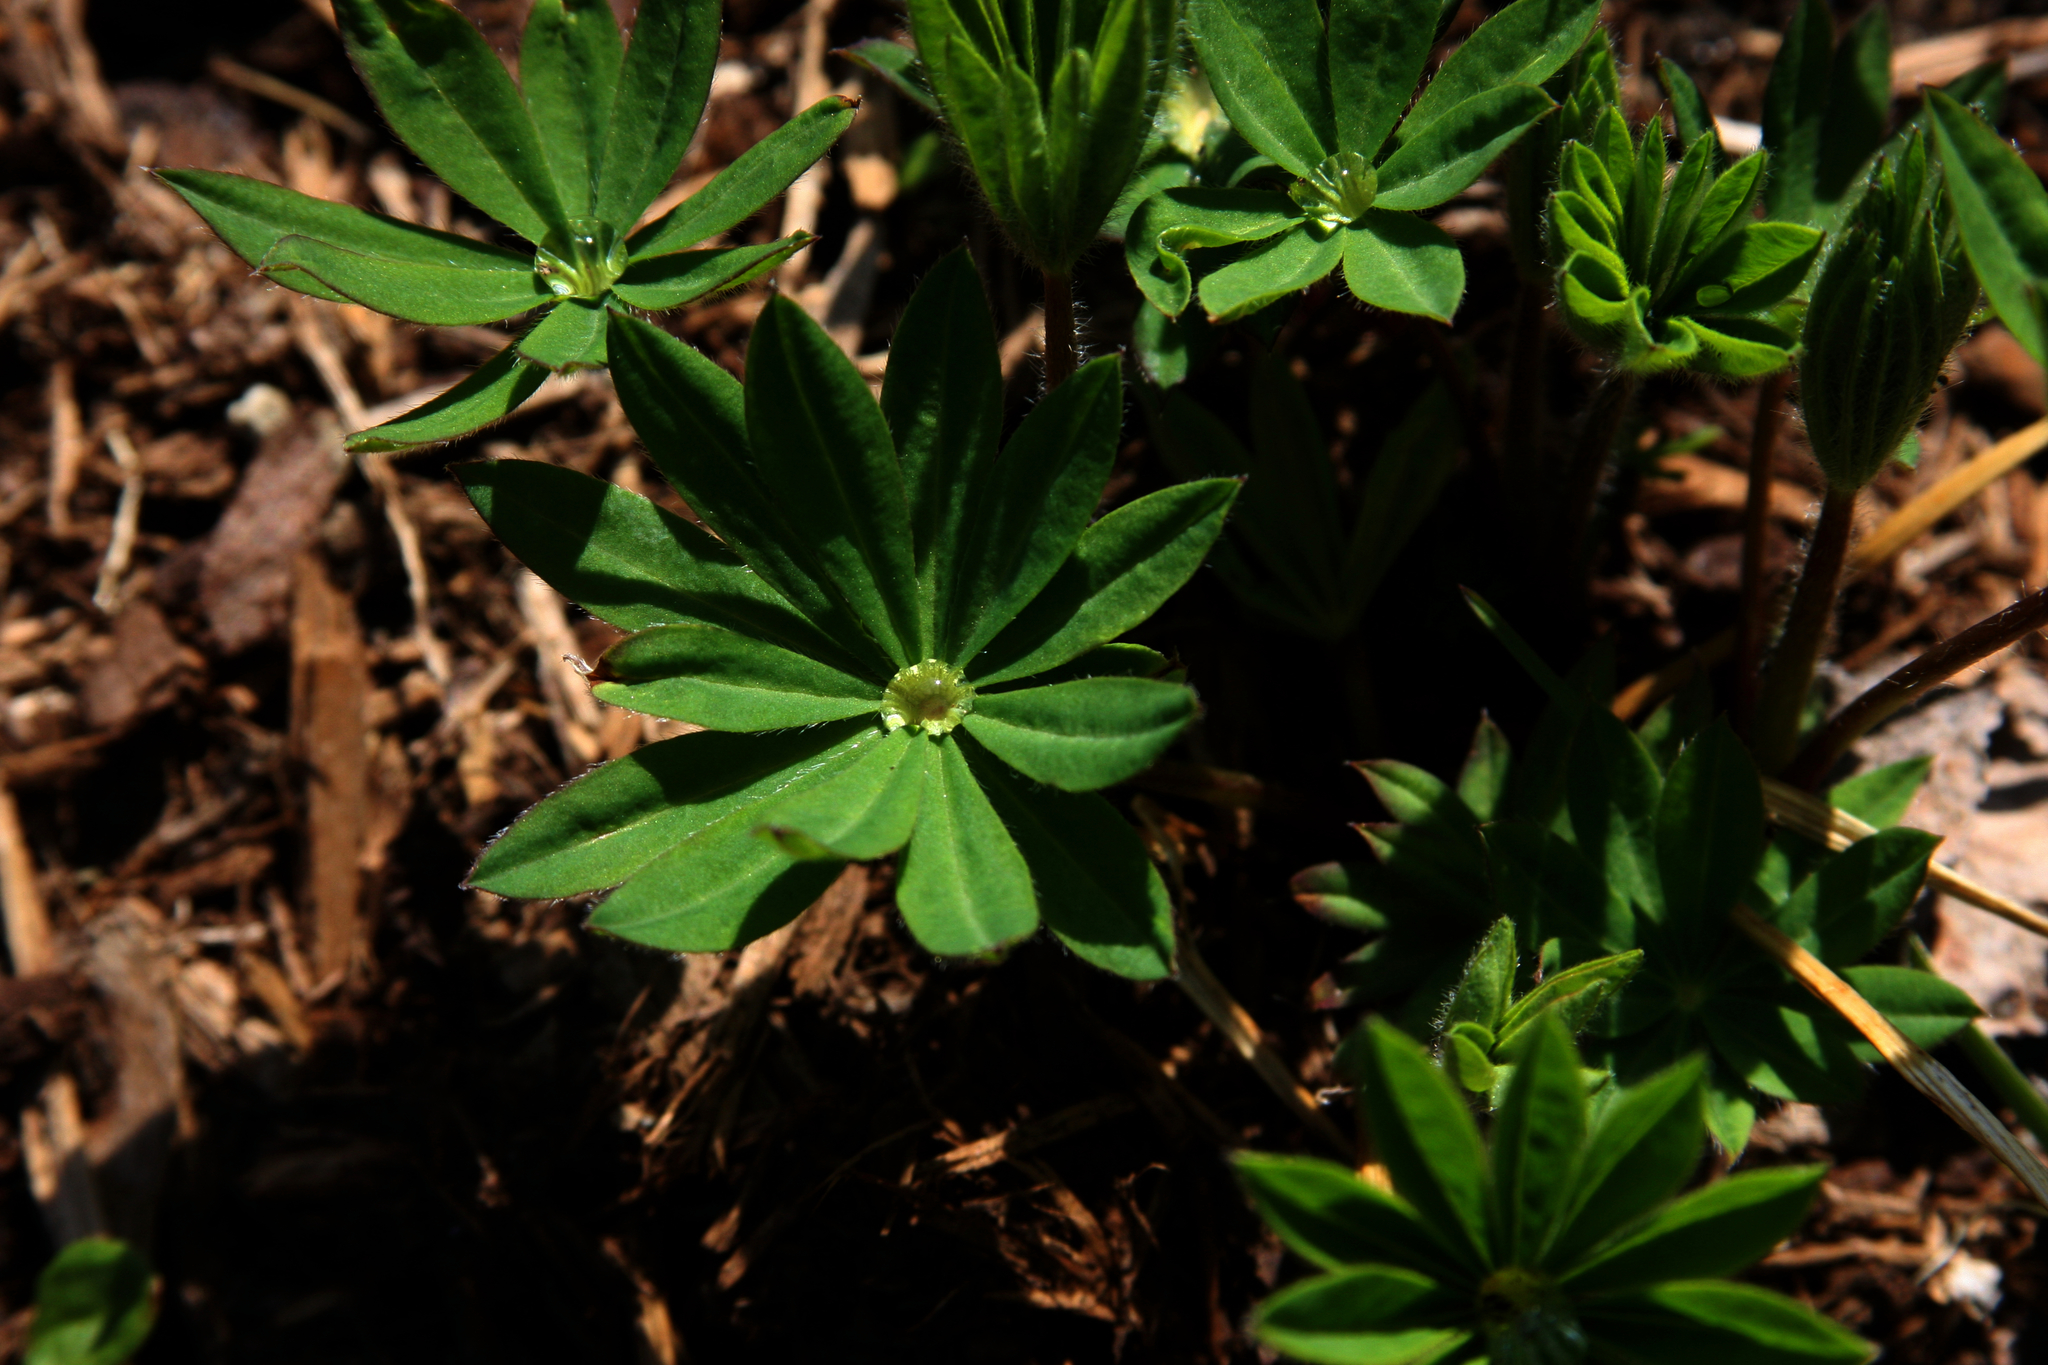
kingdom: Plantae
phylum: Tracheophyta
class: Magnoliopsida
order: Fabales
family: Fabaceae
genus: Lupinus
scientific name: Lupinus polyphyllus
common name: Garden lupin
